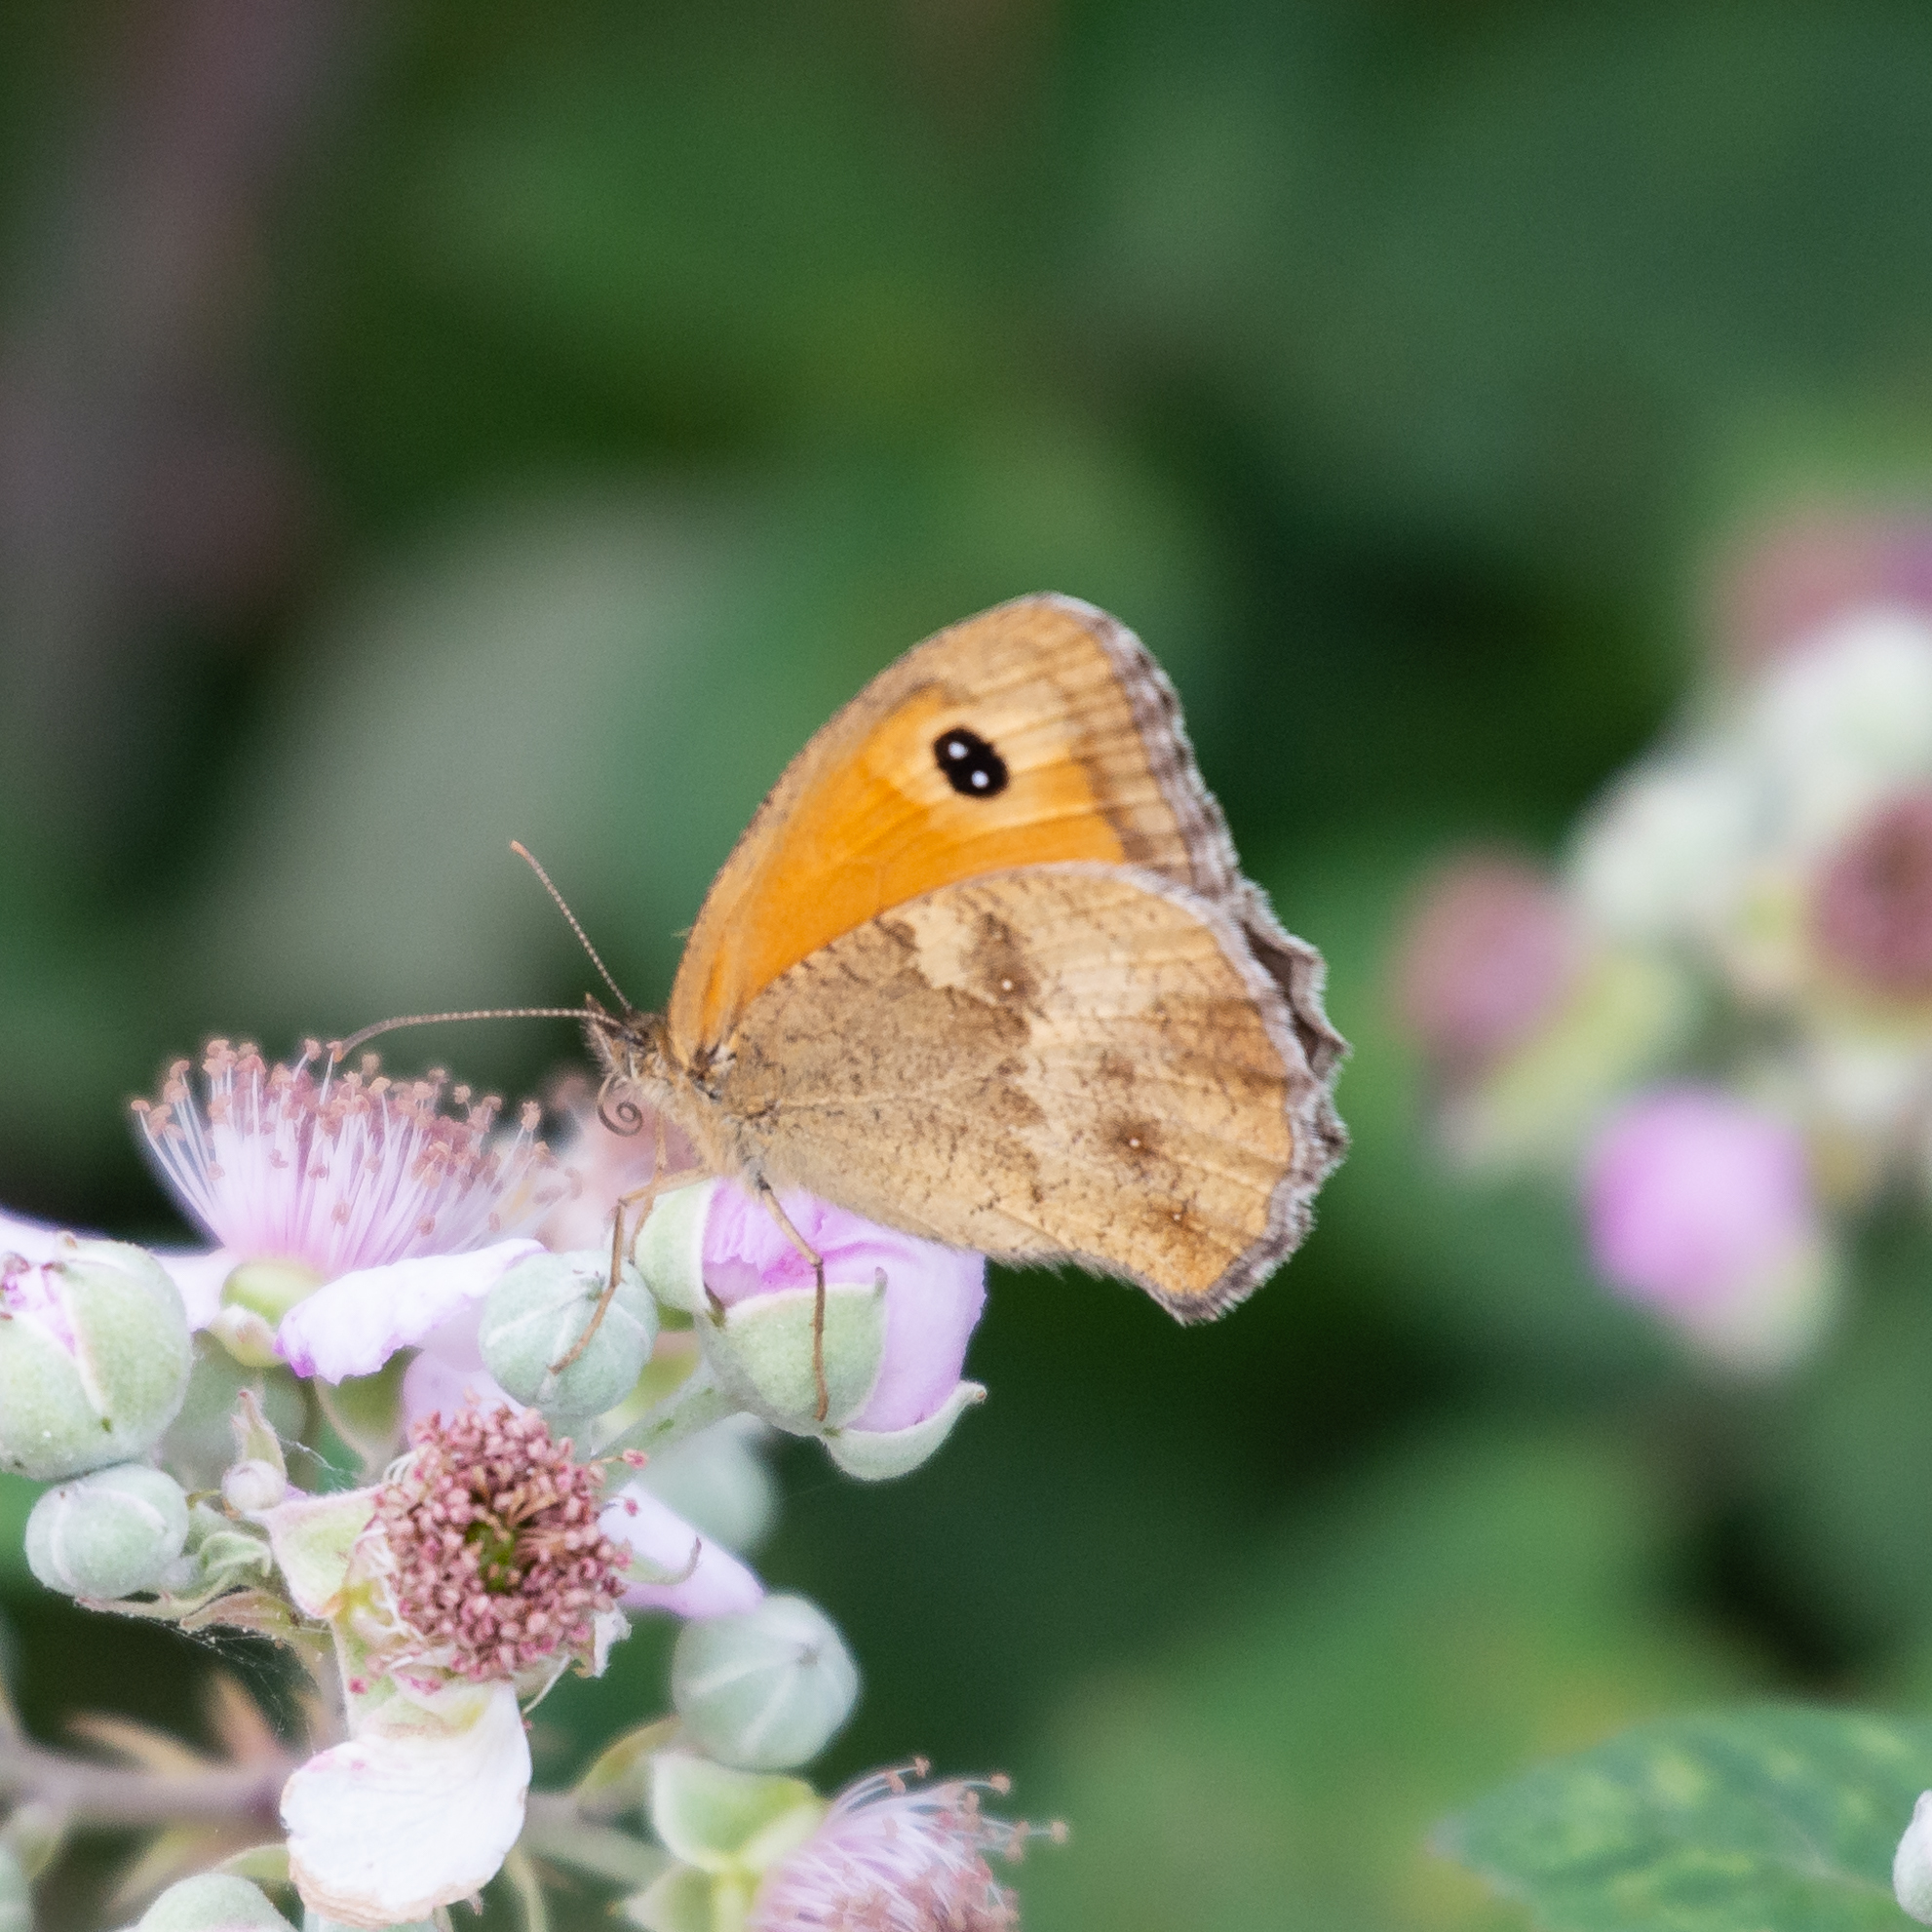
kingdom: Animalia
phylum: Arthropoda
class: Insecta
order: Lepidoptera
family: Nymphalidae
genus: Pyronia
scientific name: Pyronia tithonus
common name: Gatekeeper
